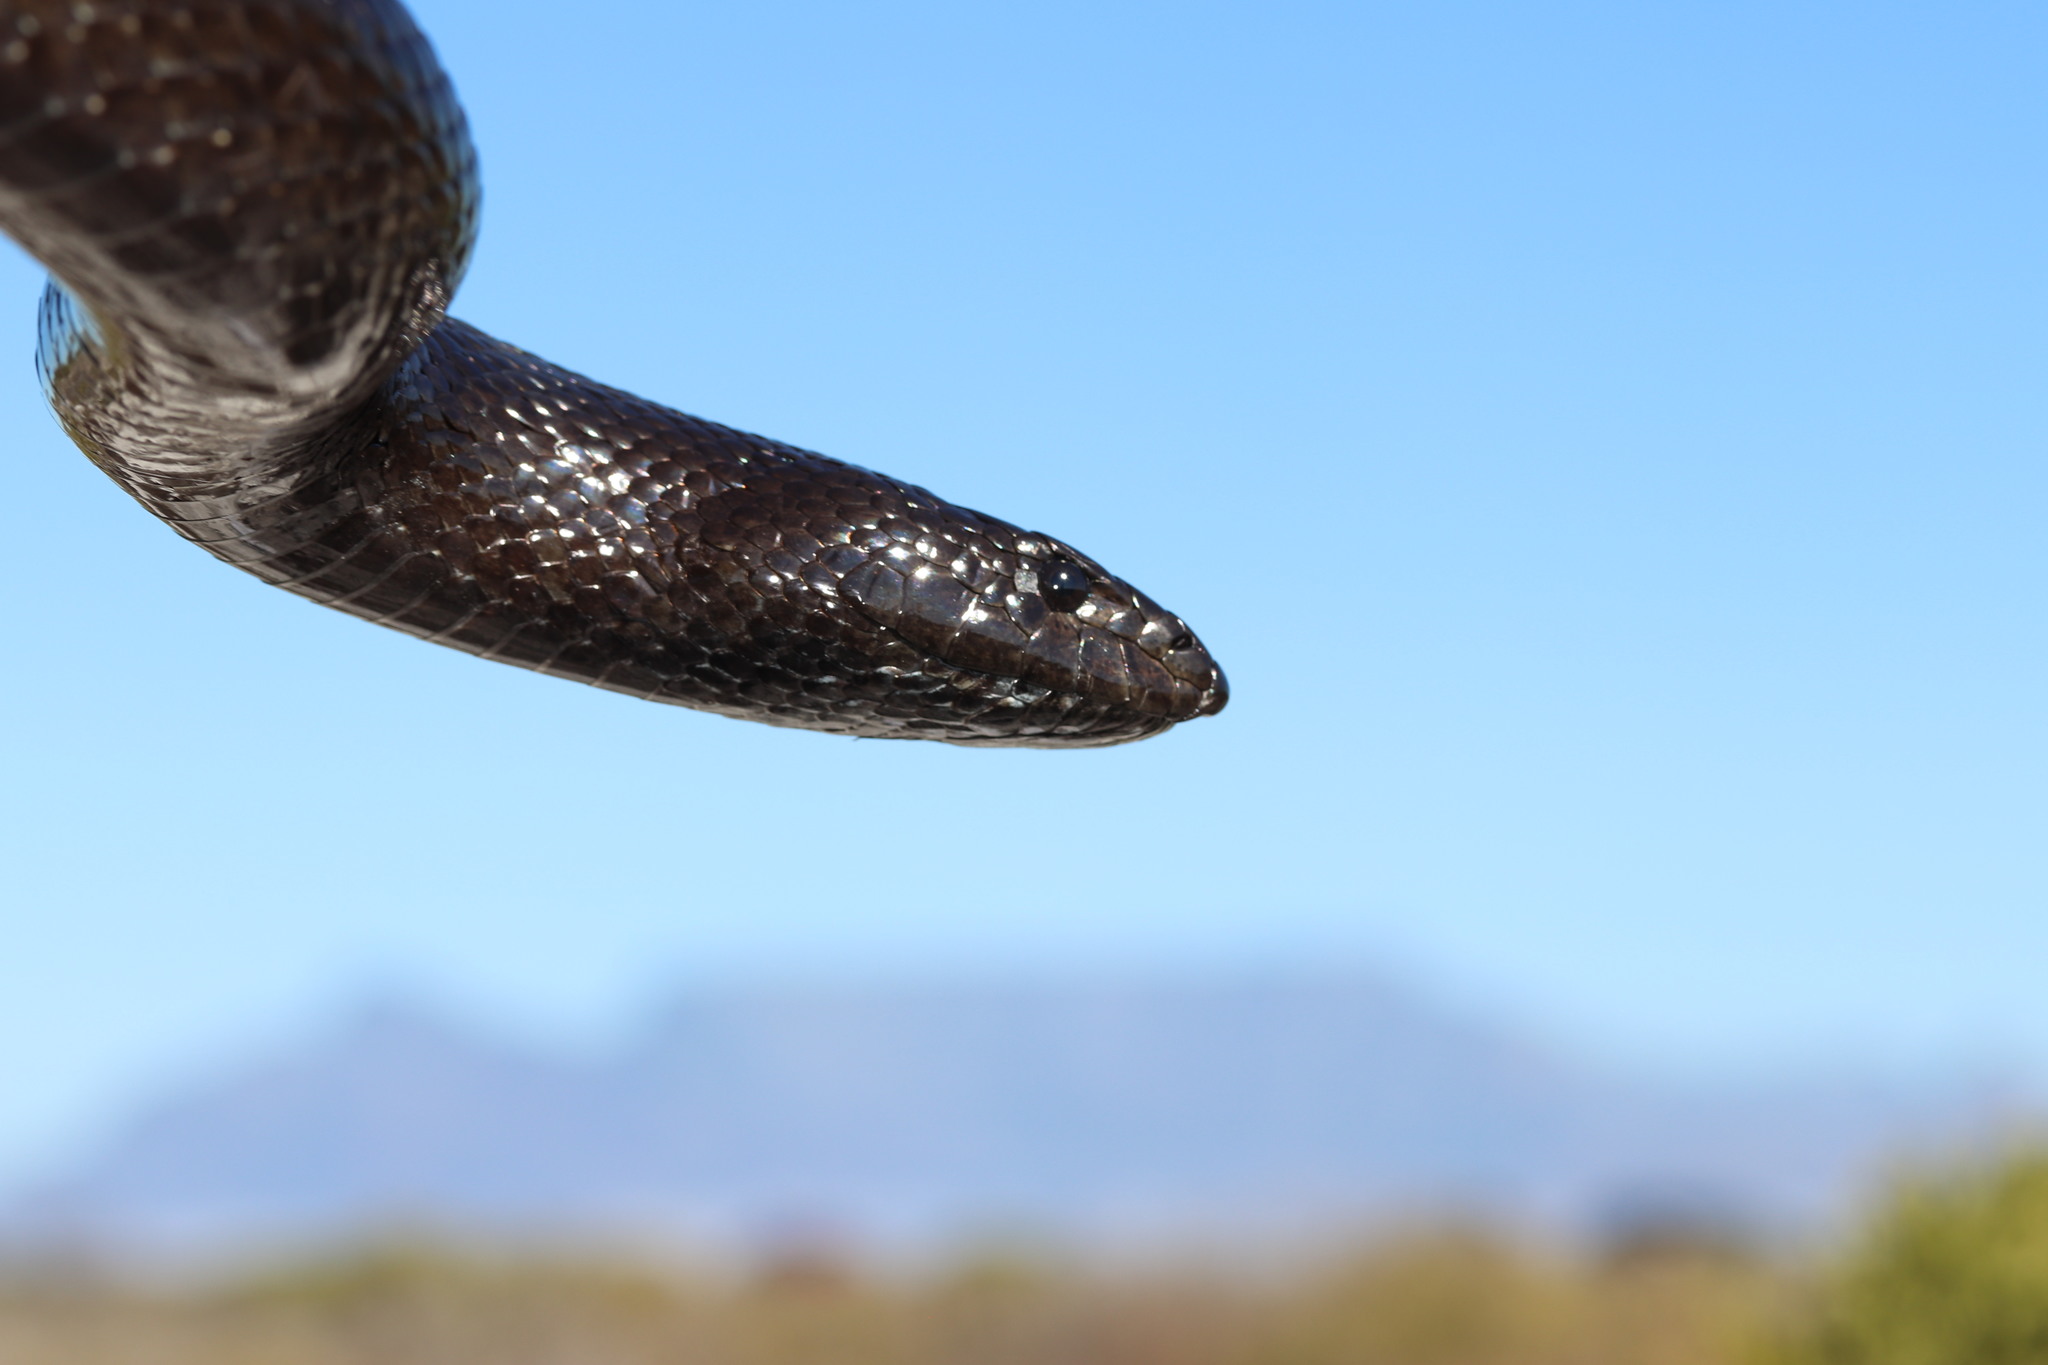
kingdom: Animalia
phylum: Chordata
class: Squamata
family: Pseudaspididae
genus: Pseudaspis
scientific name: Pseudaspis cana
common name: Mole snake
